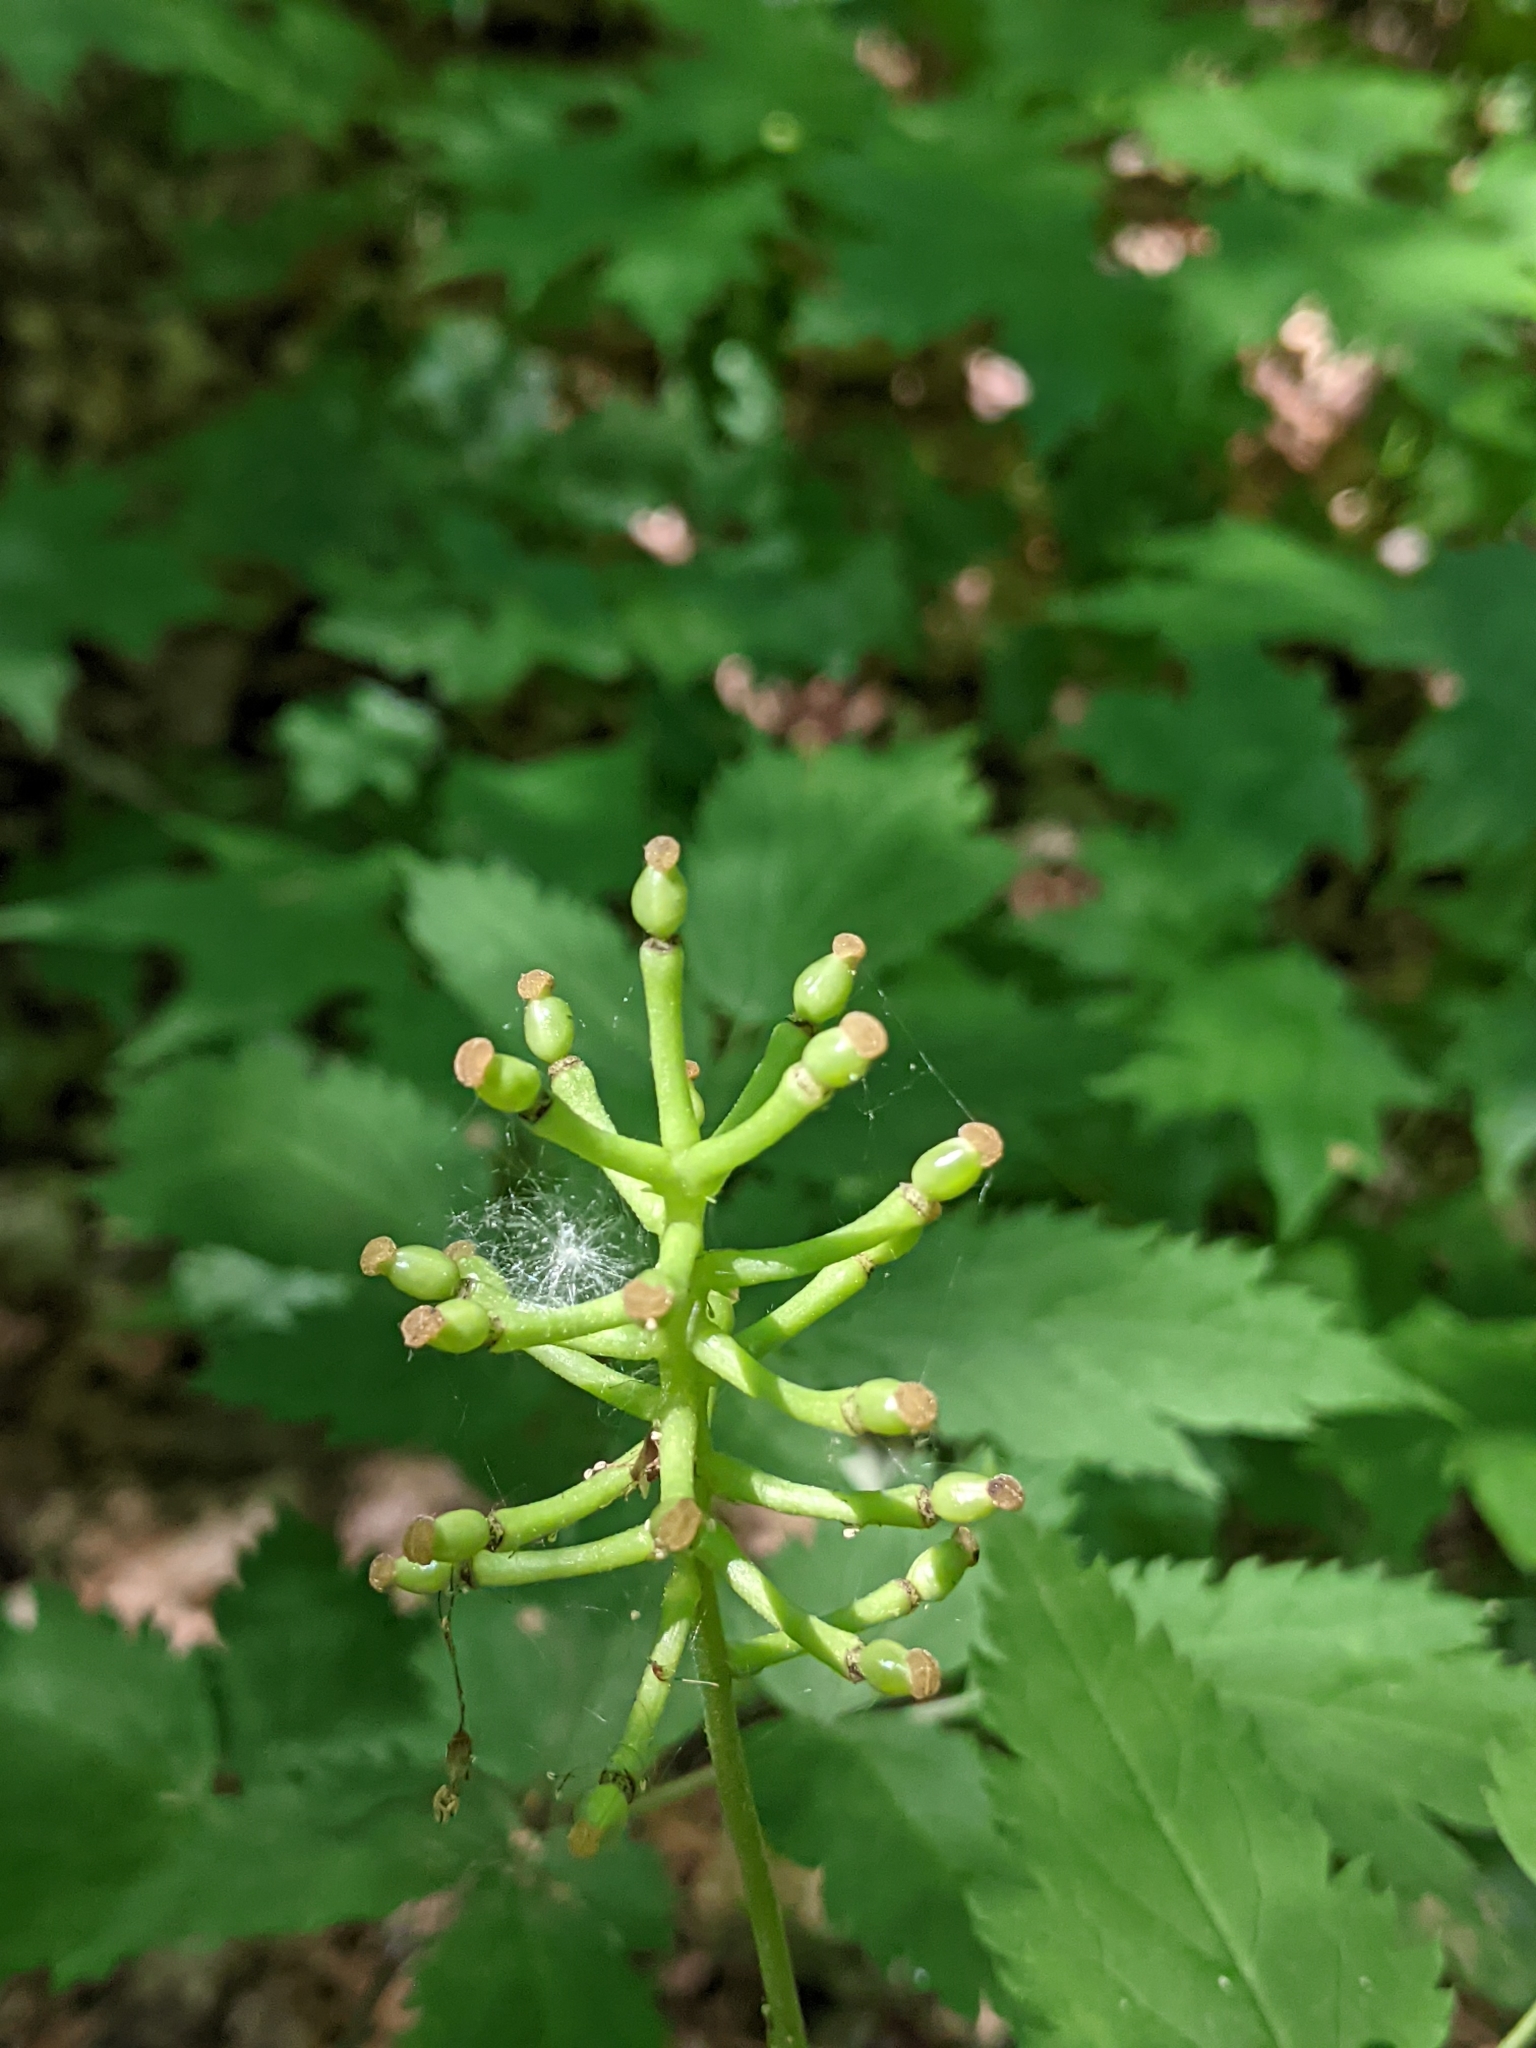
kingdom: Plantae
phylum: Tracheophyta
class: Magnoliopsida
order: Ranunculales
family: Ranunculaceae
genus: Actaea
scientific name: Actaea pachypoda
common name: Doll's-eyes
